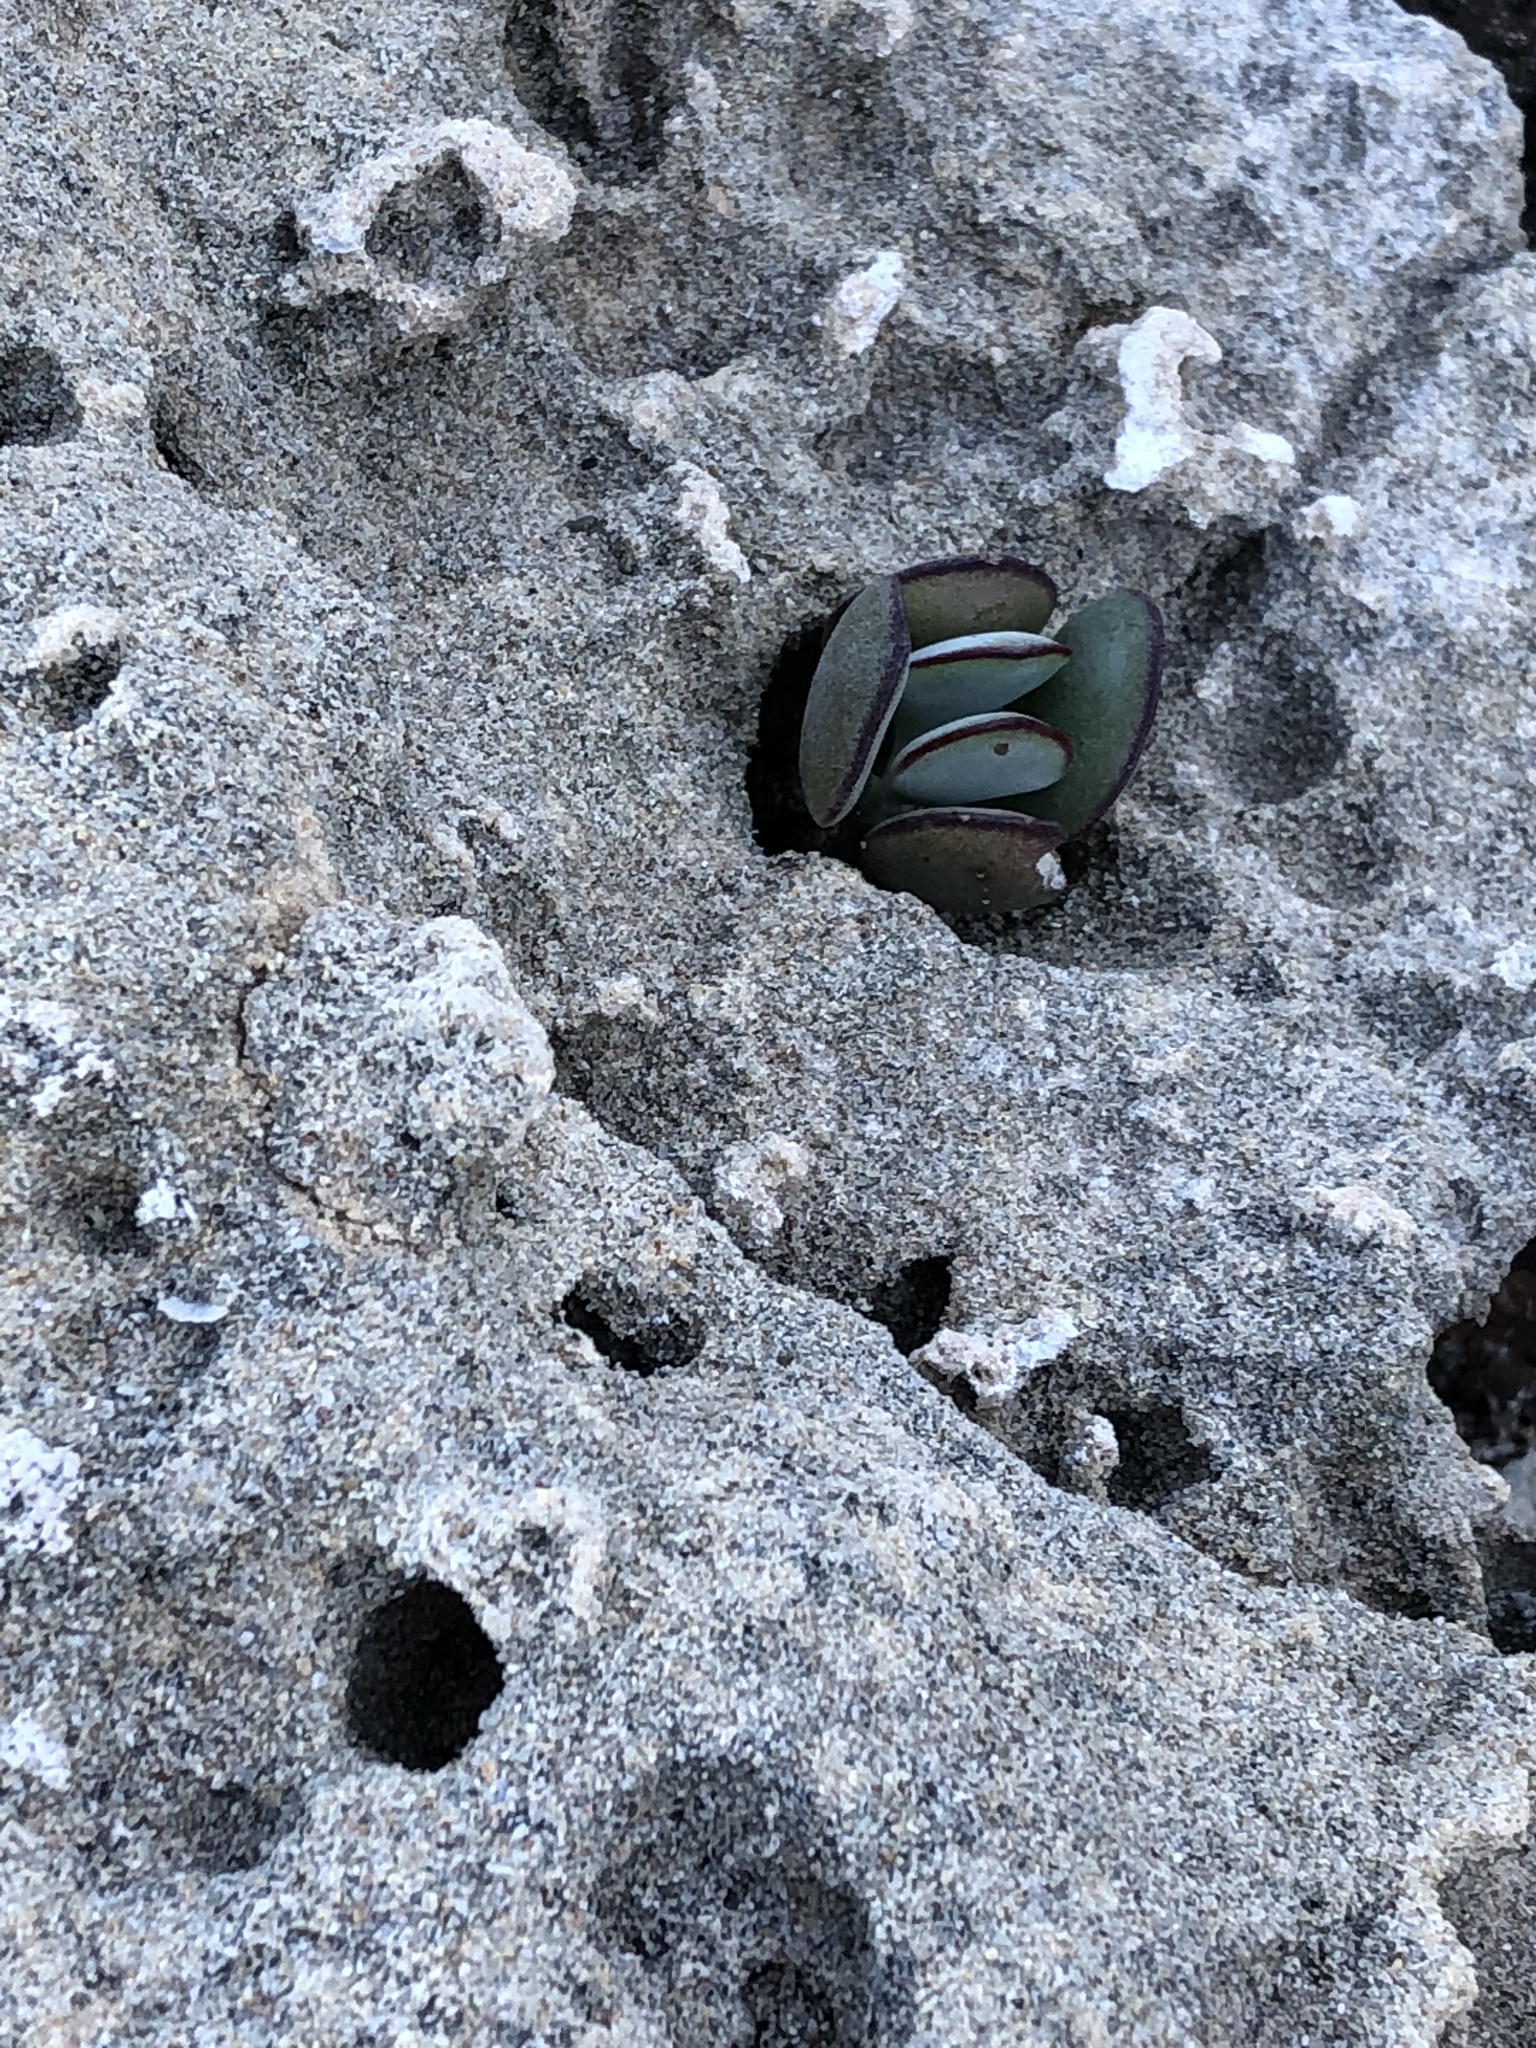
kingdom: Plantae
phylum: Tracheophyta
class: Magnoliopsida
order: Saxifragales
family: Crassulaceae
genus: Cotyledon
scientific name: Cotyledon orbiculata
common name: Pig's ear
